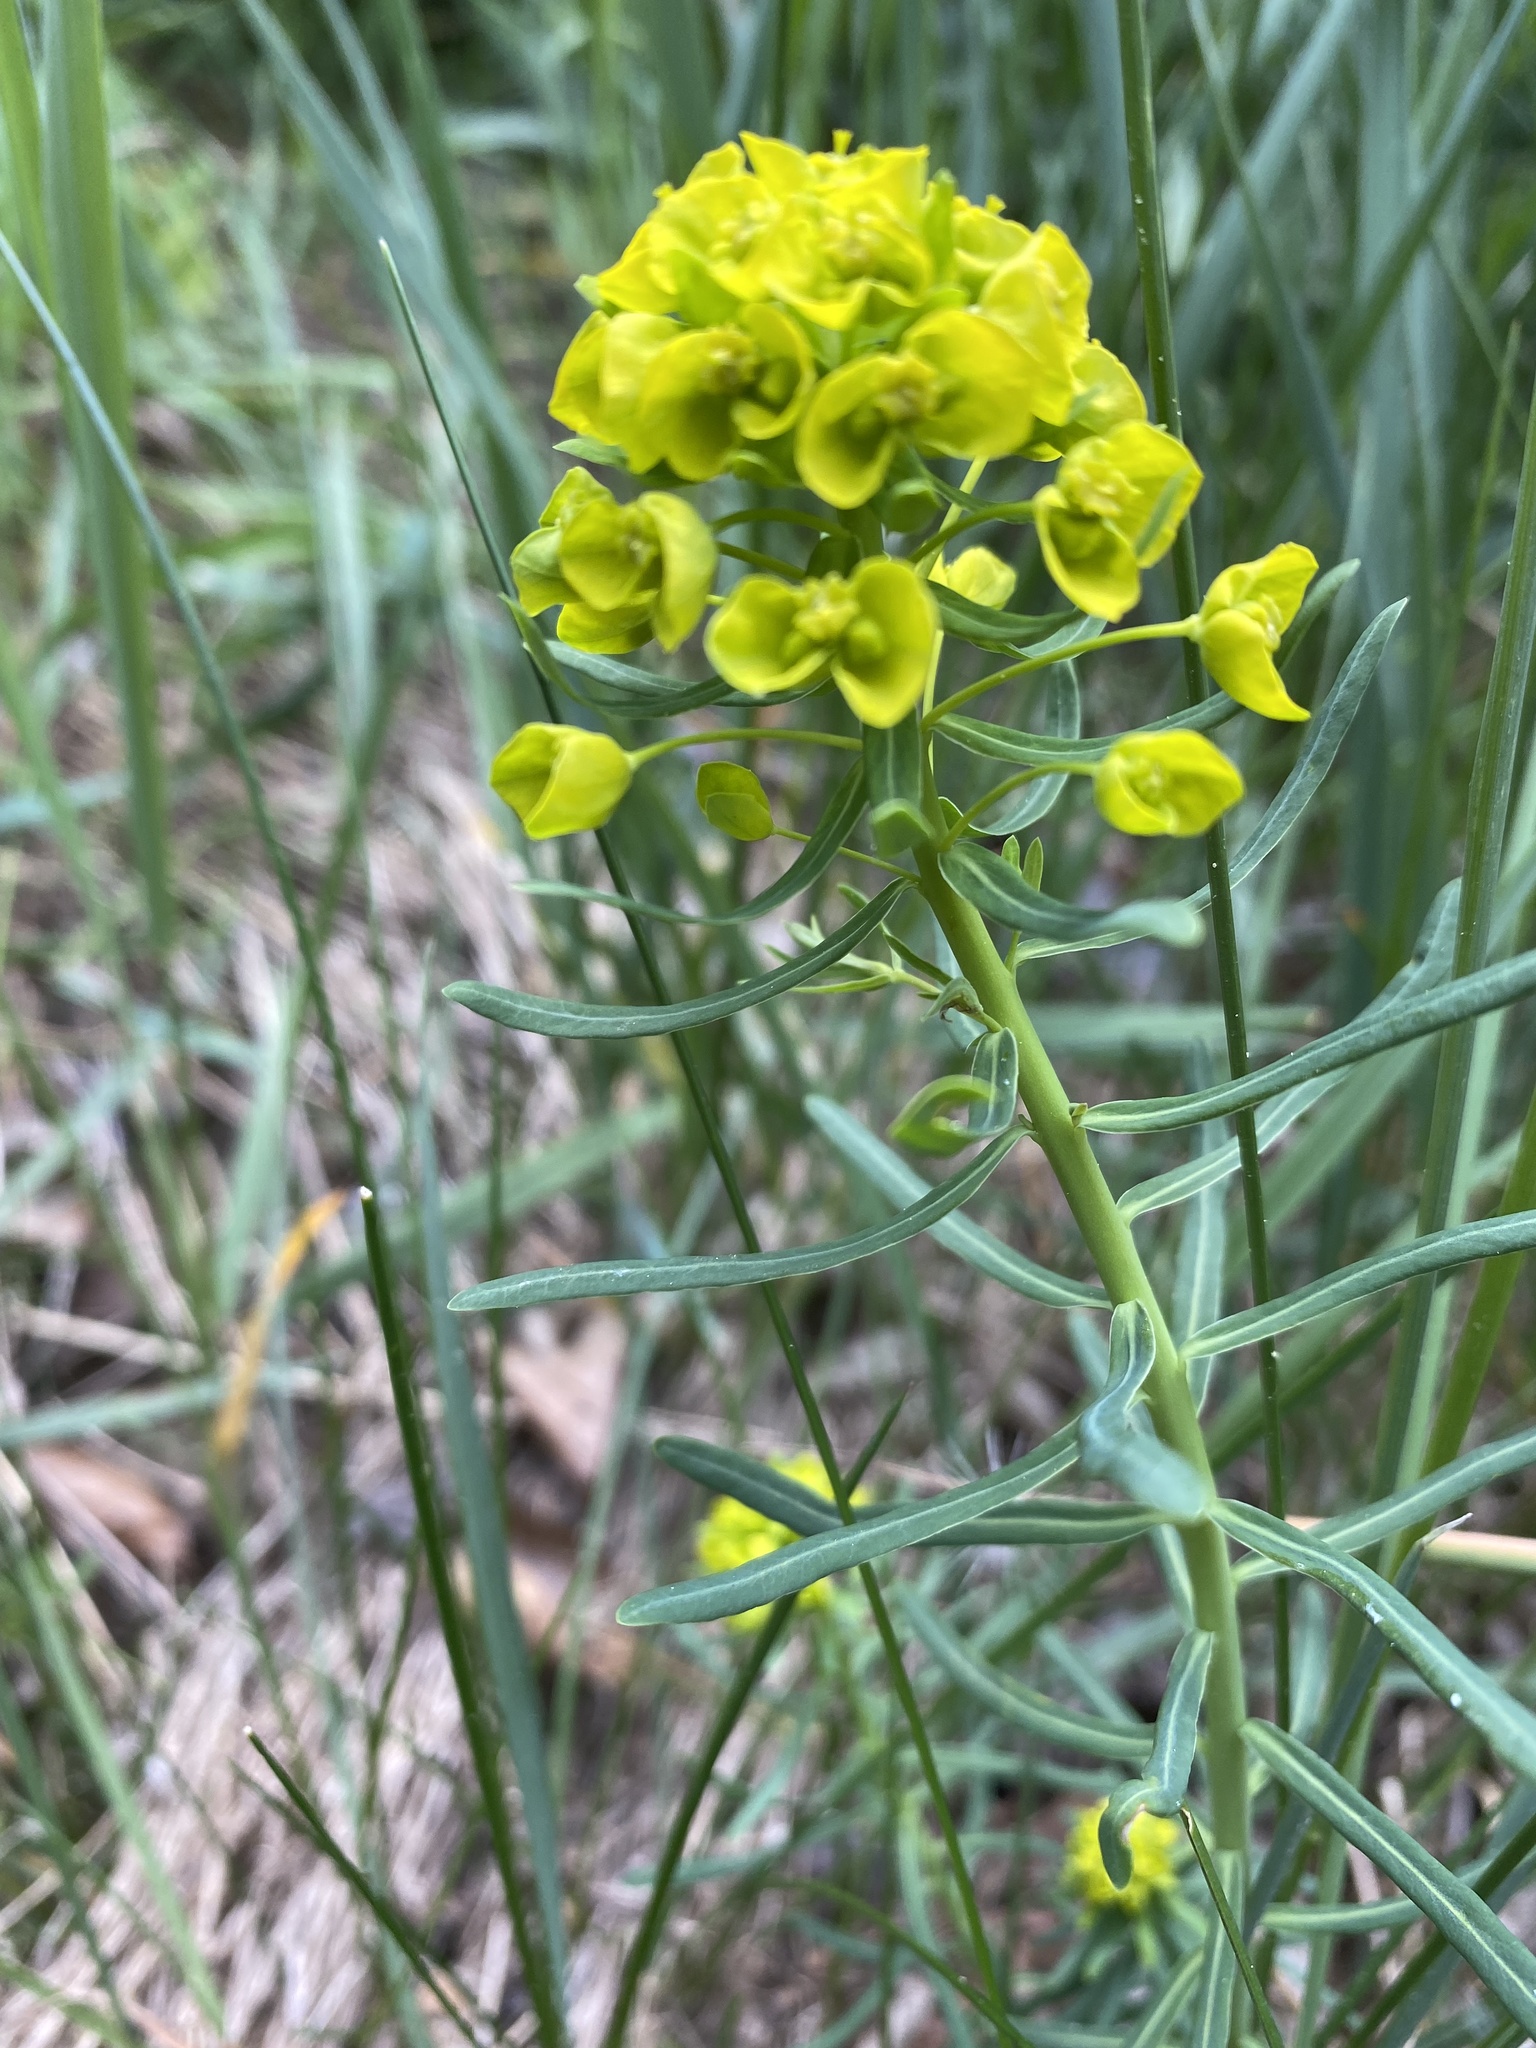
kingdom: Plantae
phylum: Tracheophyta
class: Magnoliopsida
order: Malpighiales
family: Euphorbiaceae
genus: Euphorbia
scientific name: Euphorbia cyparissias
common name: Cypress spurge
